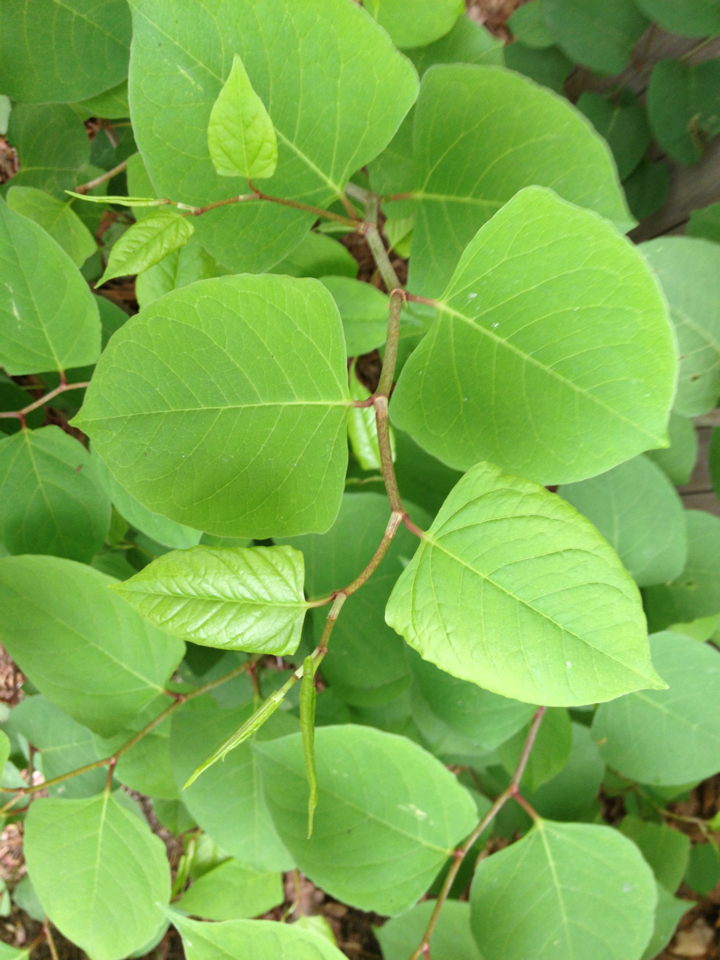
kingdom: Plantae
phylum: Tracheophyta
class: Magnoliopsida
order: Caryophyllales
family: Polygonaceae
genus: Reynoutria
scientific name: Reynoutria japonica
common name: Japanese knotweed
